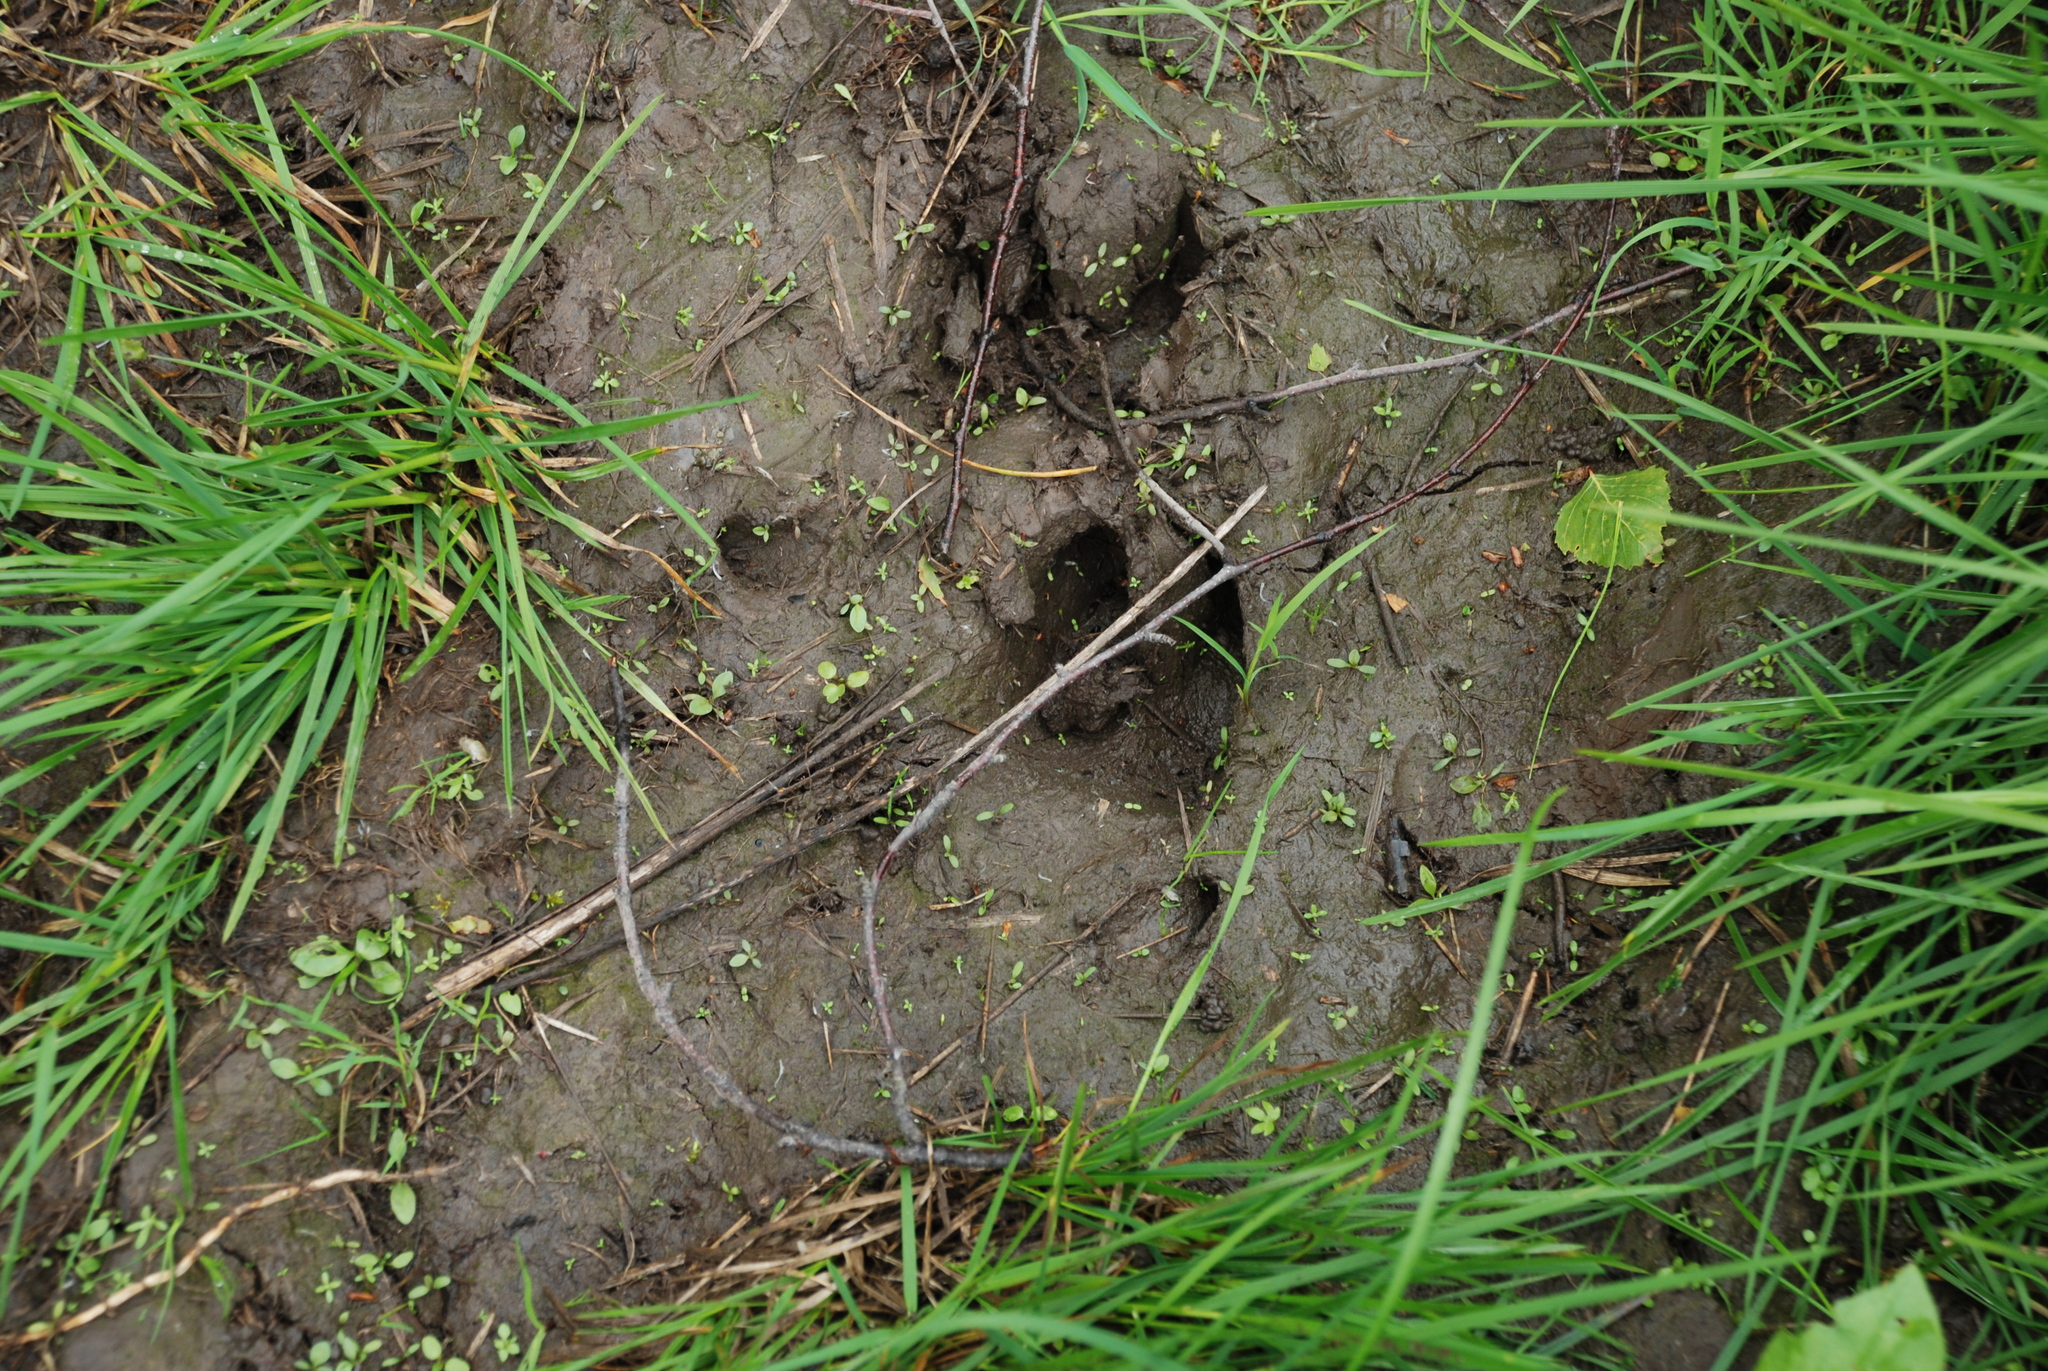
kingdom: Animalia
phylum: Chordata
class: Mammalia
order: Artiodactyla
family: Suidae
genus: Sus
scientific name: Sus scrofa
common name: Wild boar
